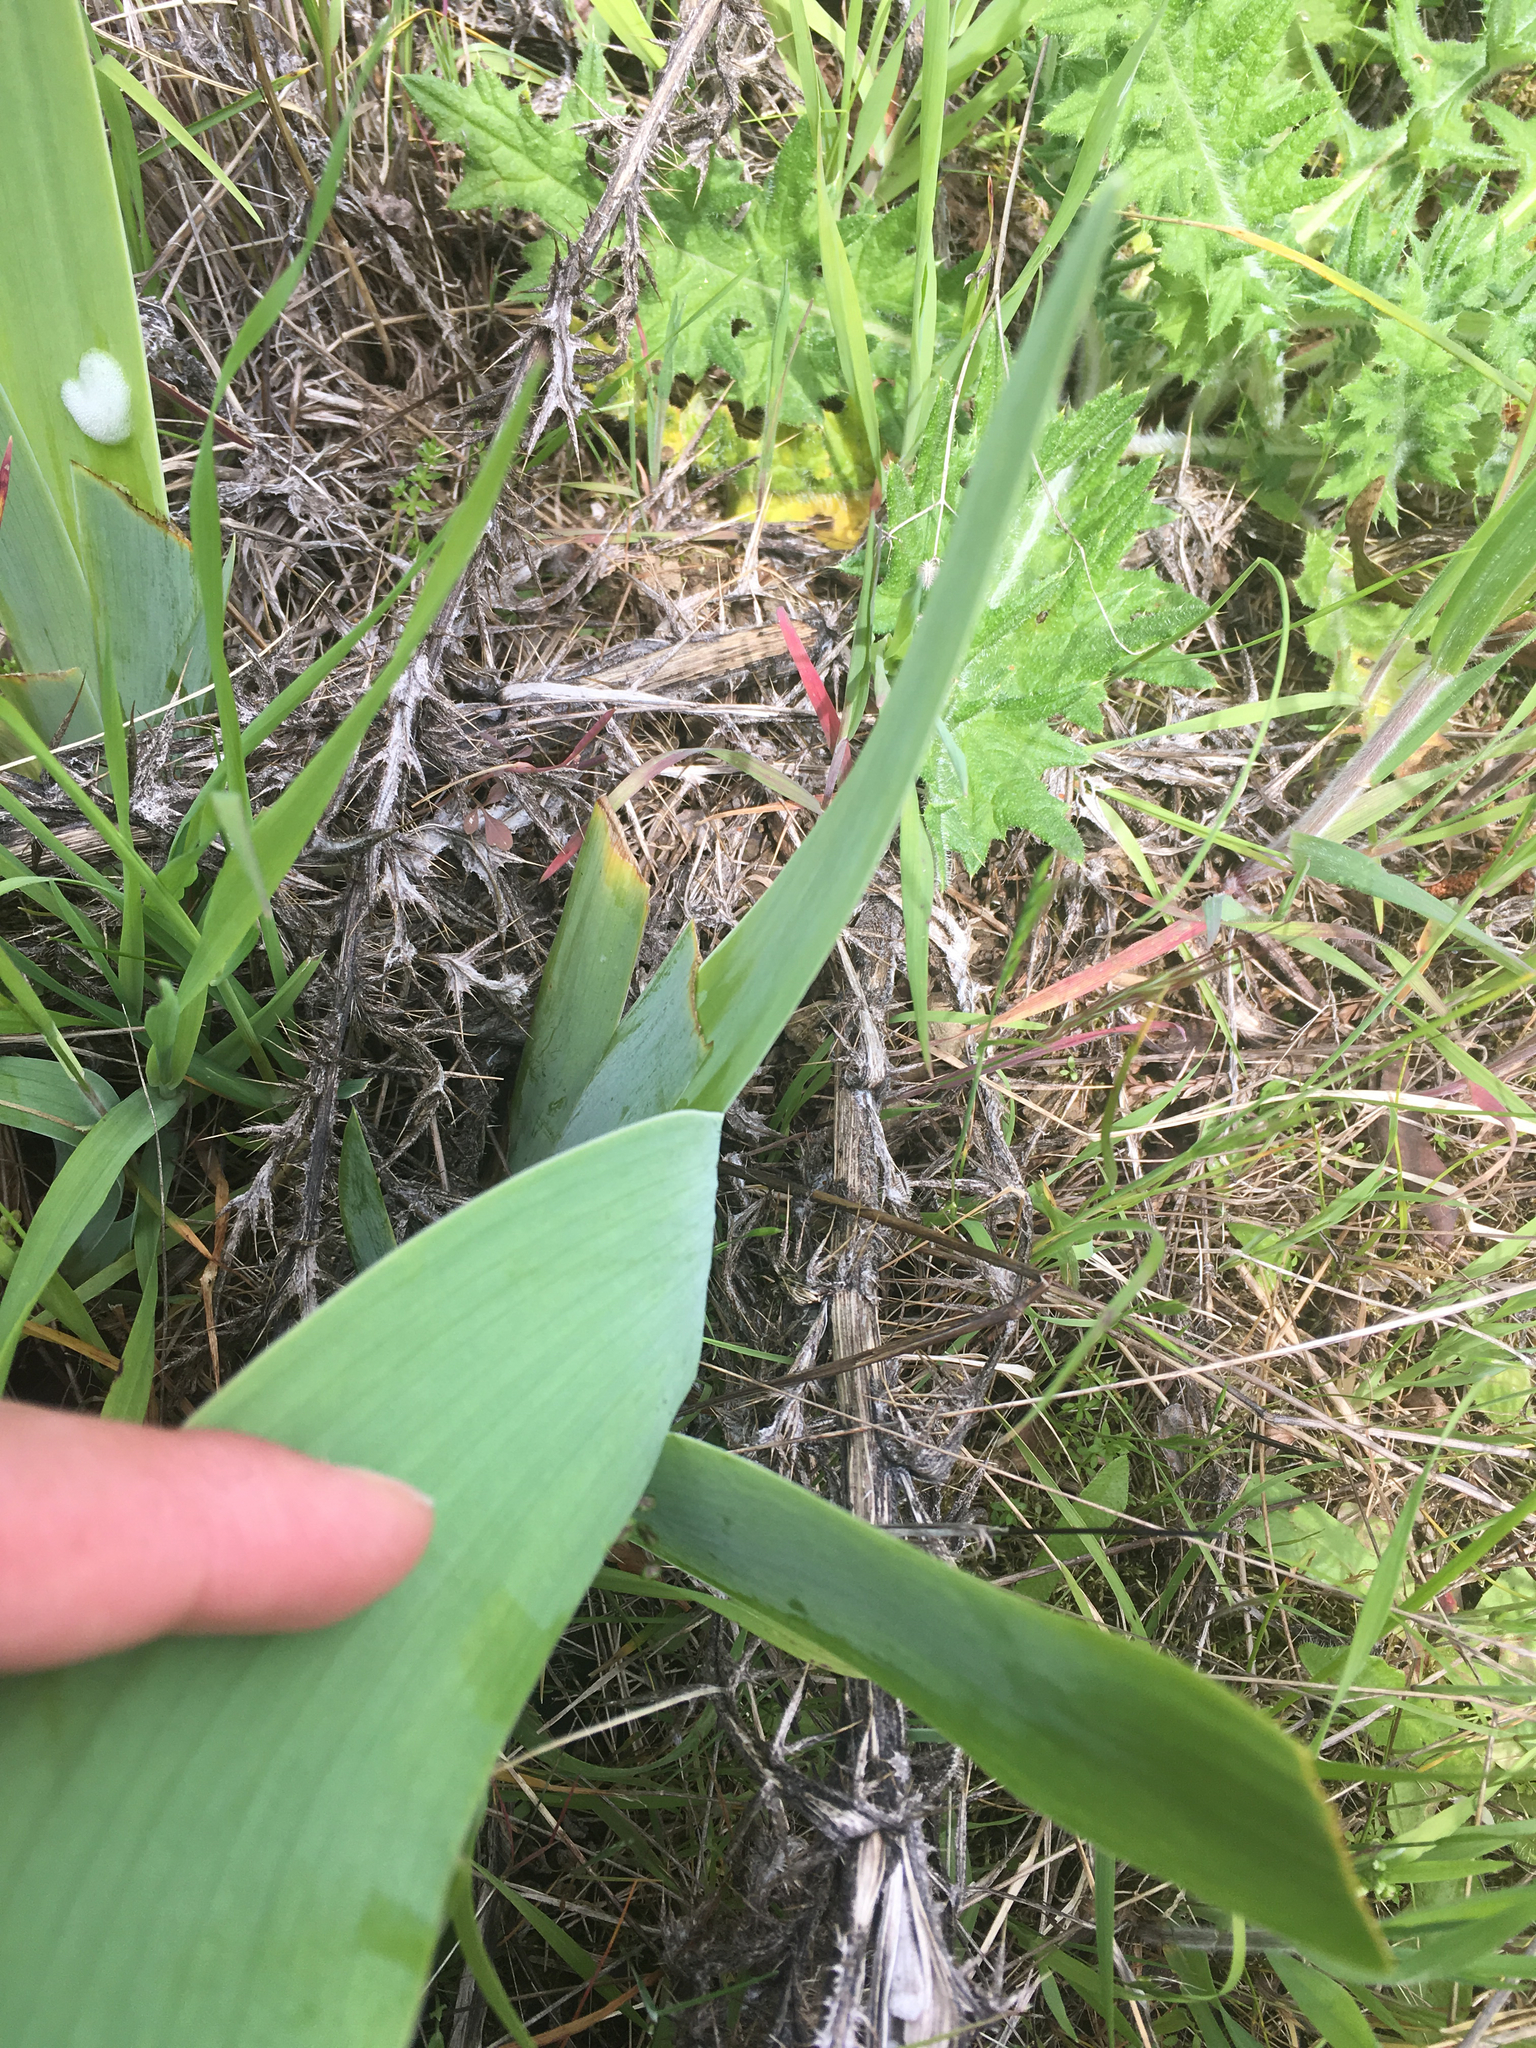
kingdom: Plantae
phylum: Tracheophyta
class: Liliopsida
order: Asparagales
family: Iridaceae
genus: Iris
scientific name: Iris germanica
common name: German iris
